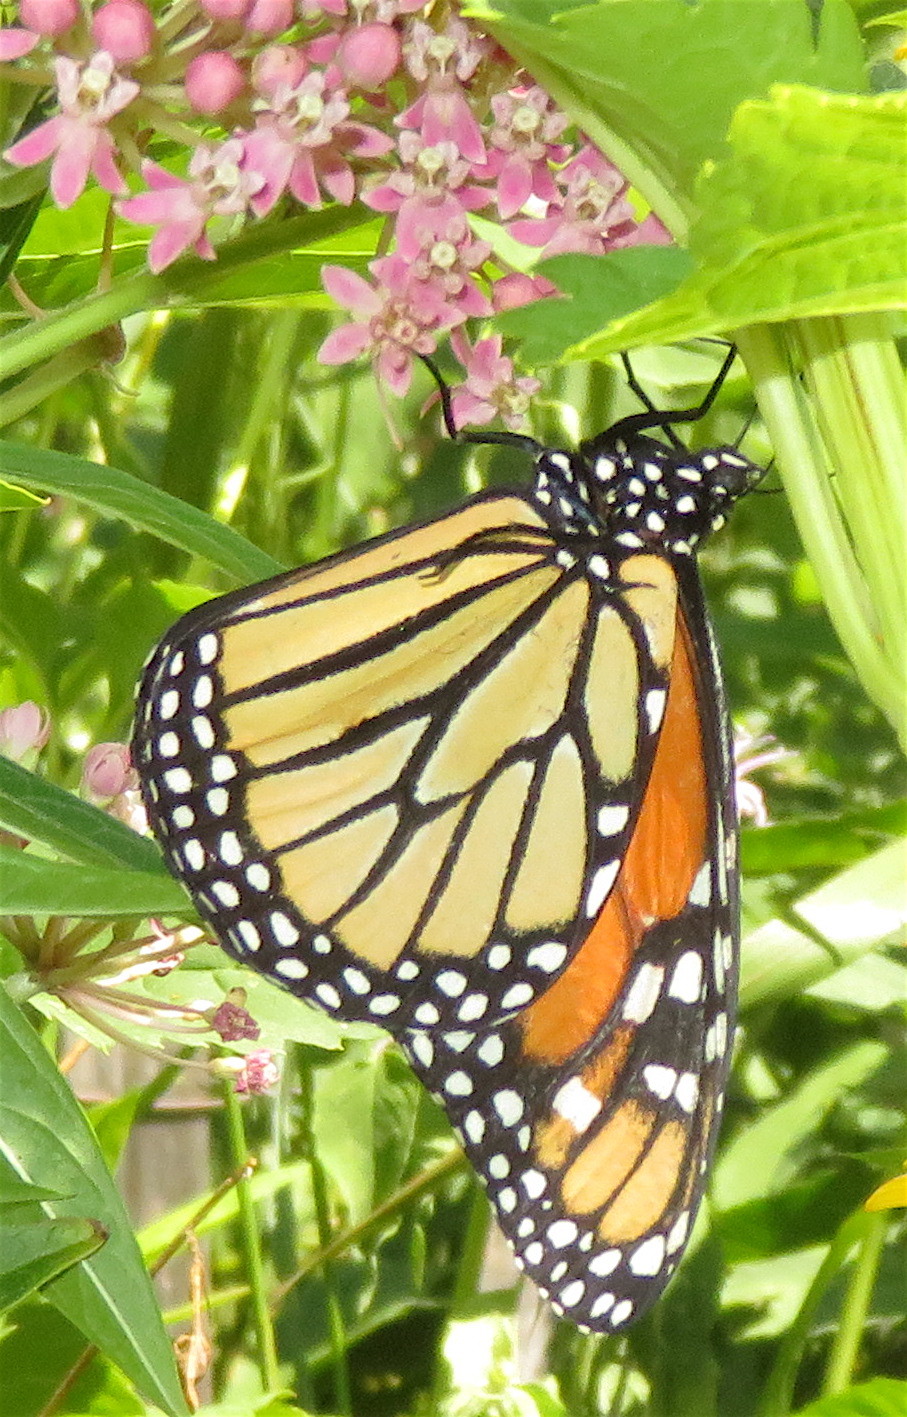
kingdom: Animalia
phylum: Arthropoda
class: Insecta
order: Lepidoptera
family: Nymphalidae
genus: Danaus
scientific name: Danaus plexippus
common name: Monarch
